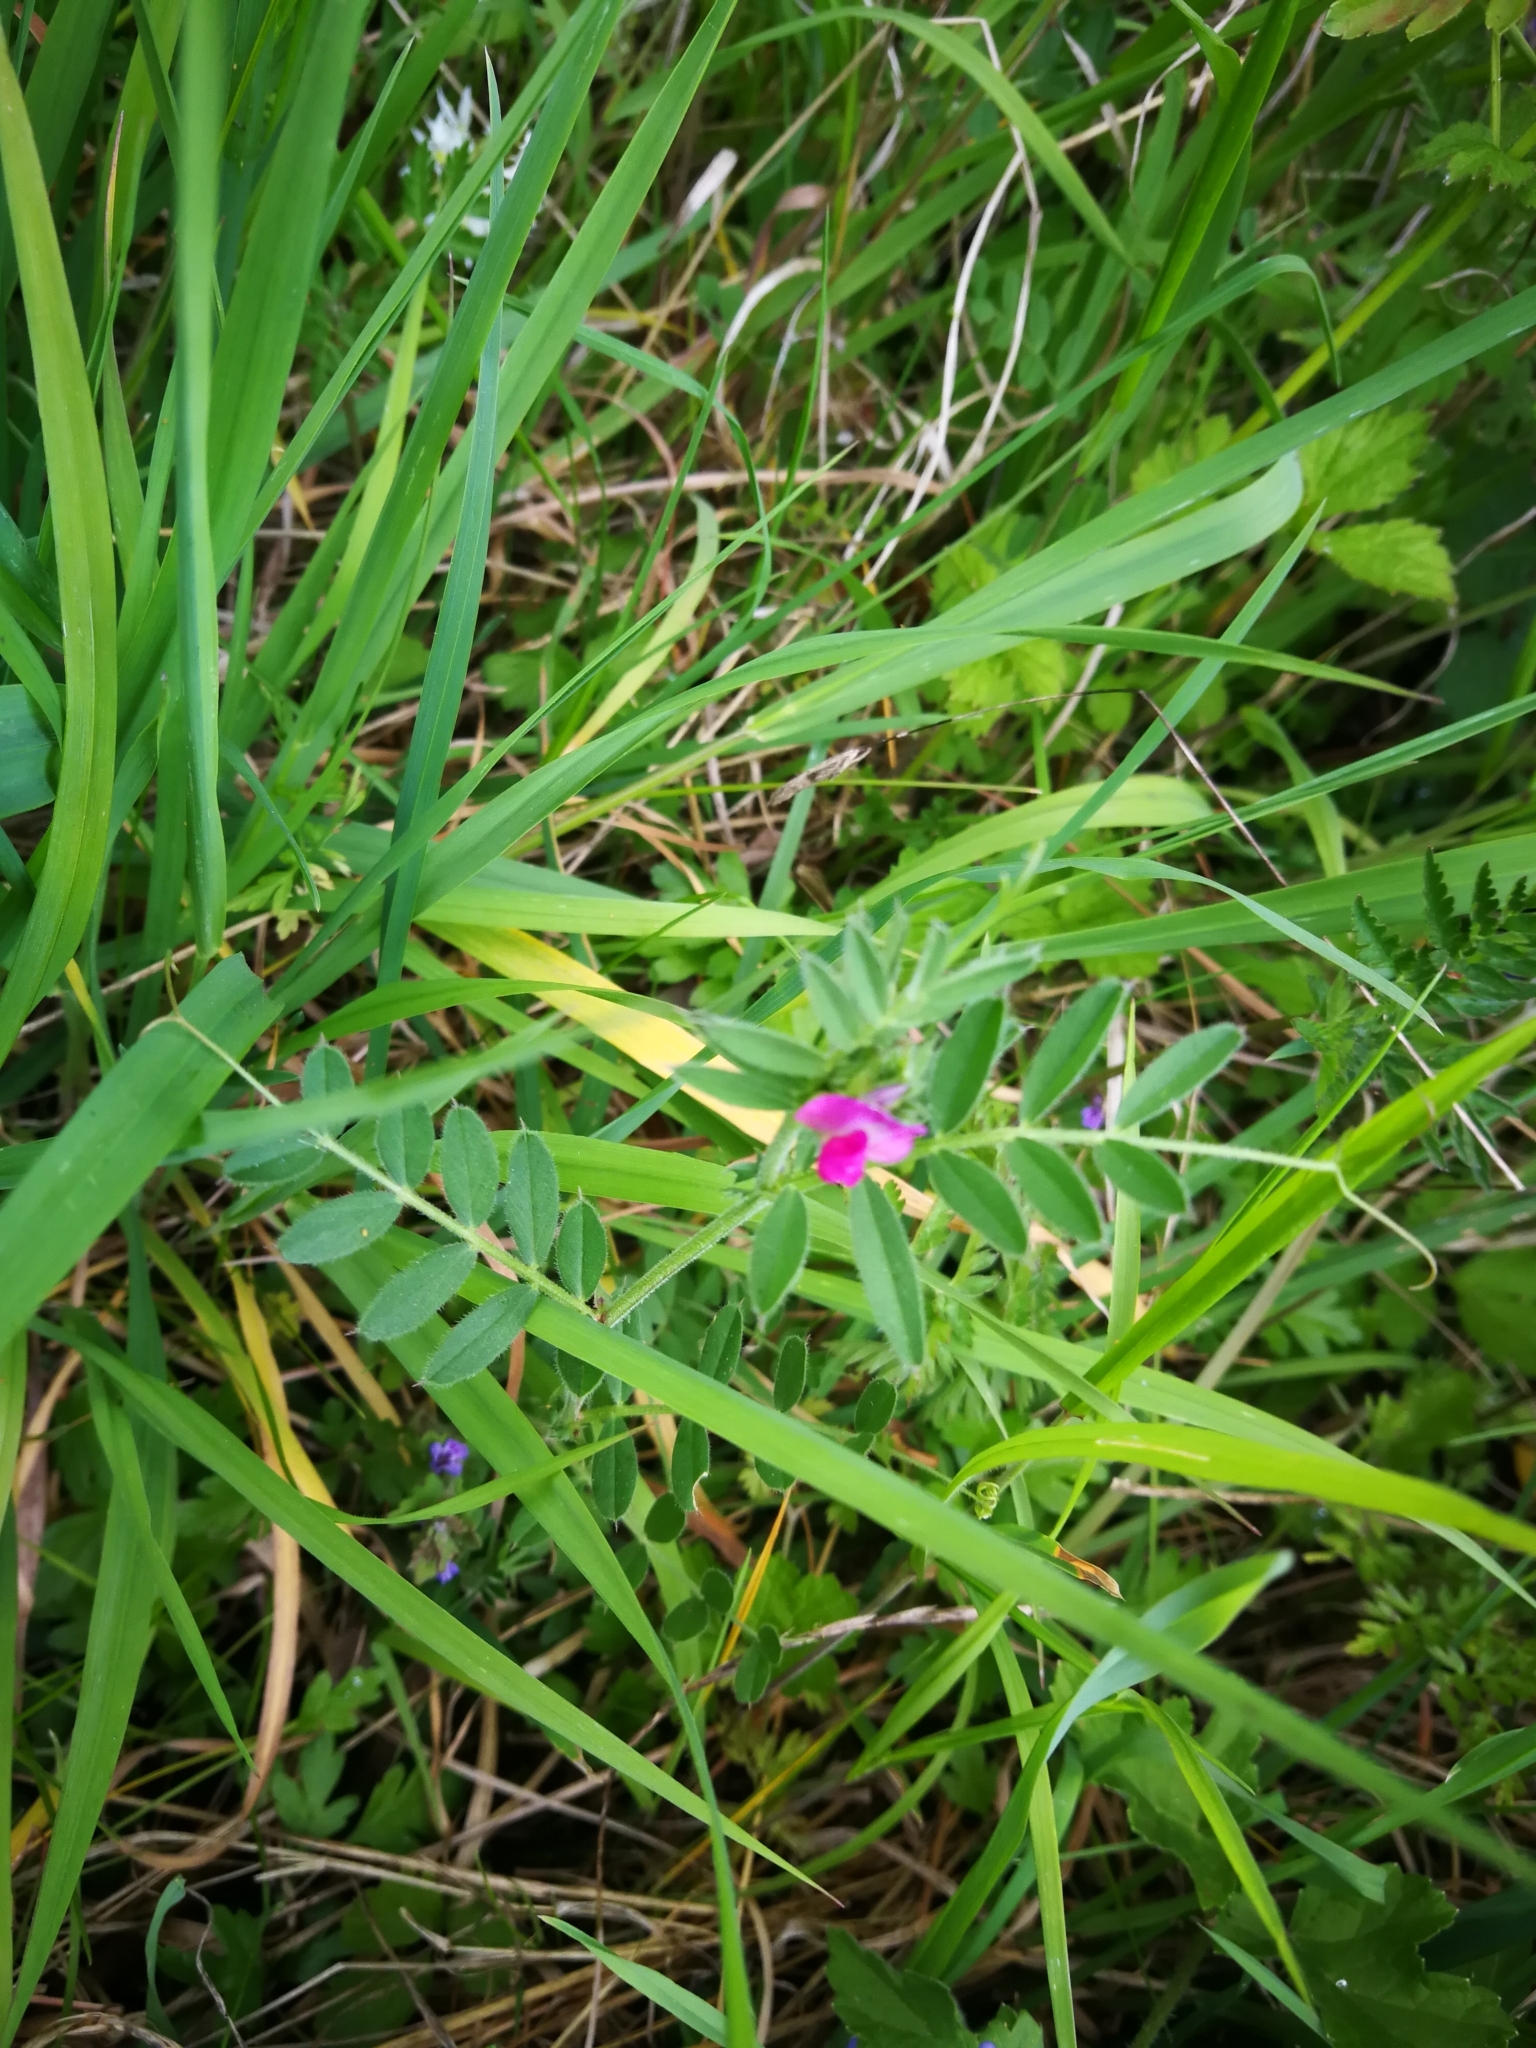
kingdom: Plantae
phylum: Tracheophyta
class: Magnoliopsida
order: Fabales
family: Fabaceae
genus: Vicia
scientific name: Vicia sativa
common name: Garden vetch
